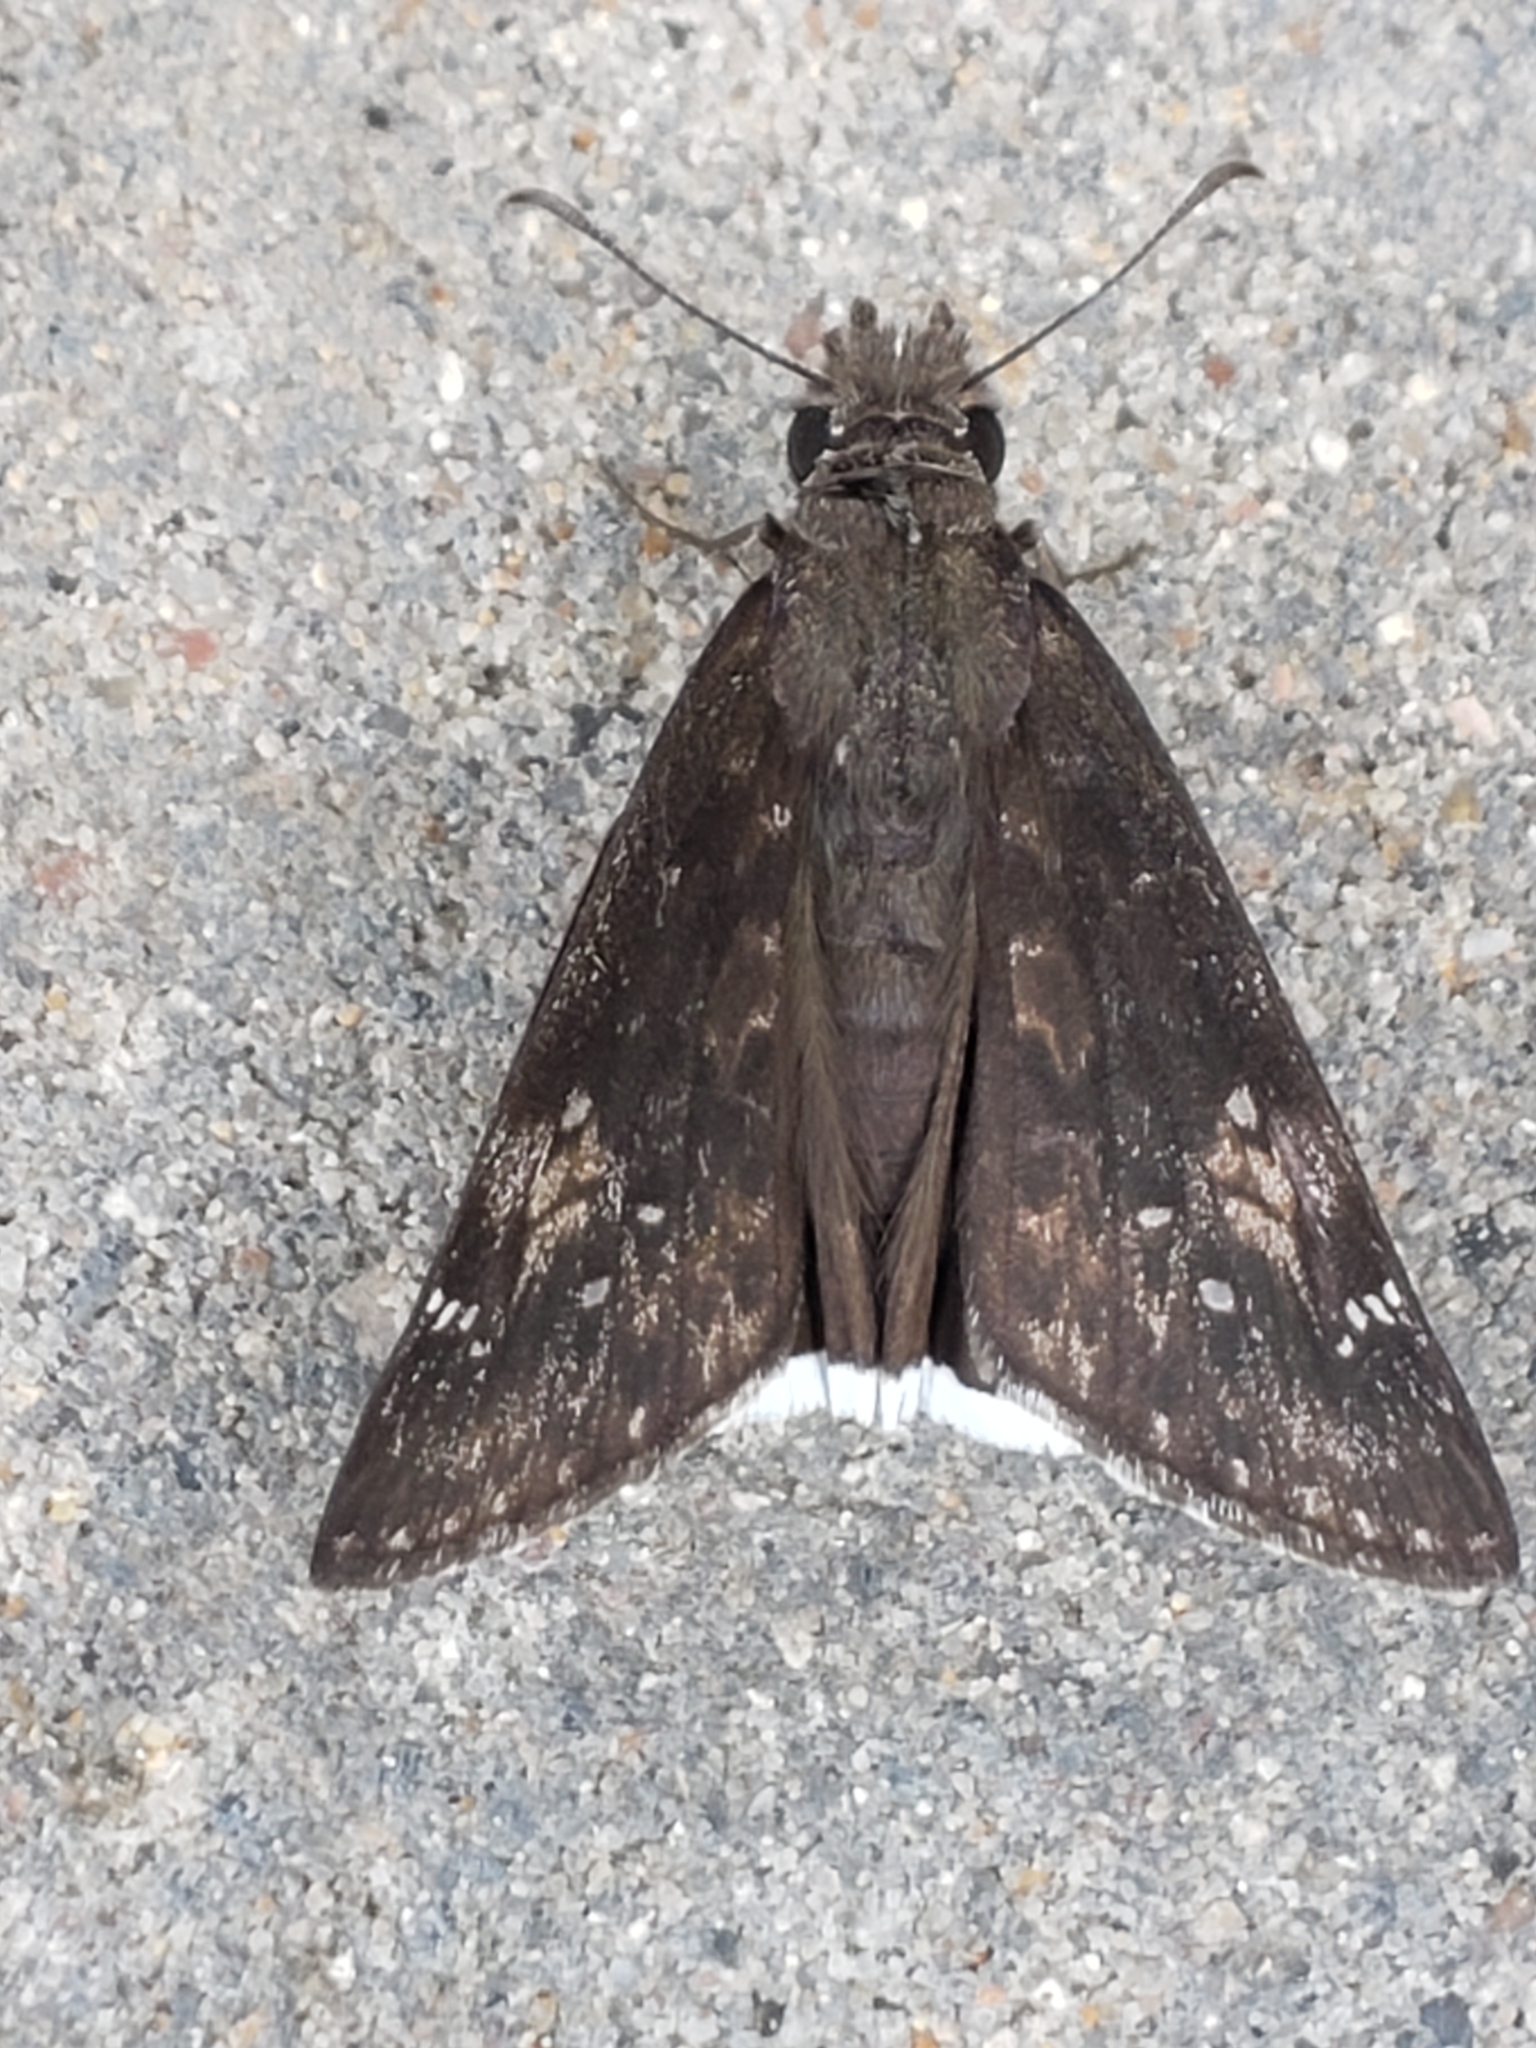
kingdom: Animalia
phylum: Arthropoda
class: Insecta
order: Lepidoptera
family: Hesperiidae
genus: Erynnis
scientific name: Erynnis funeralis
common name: Funereal duskywing
